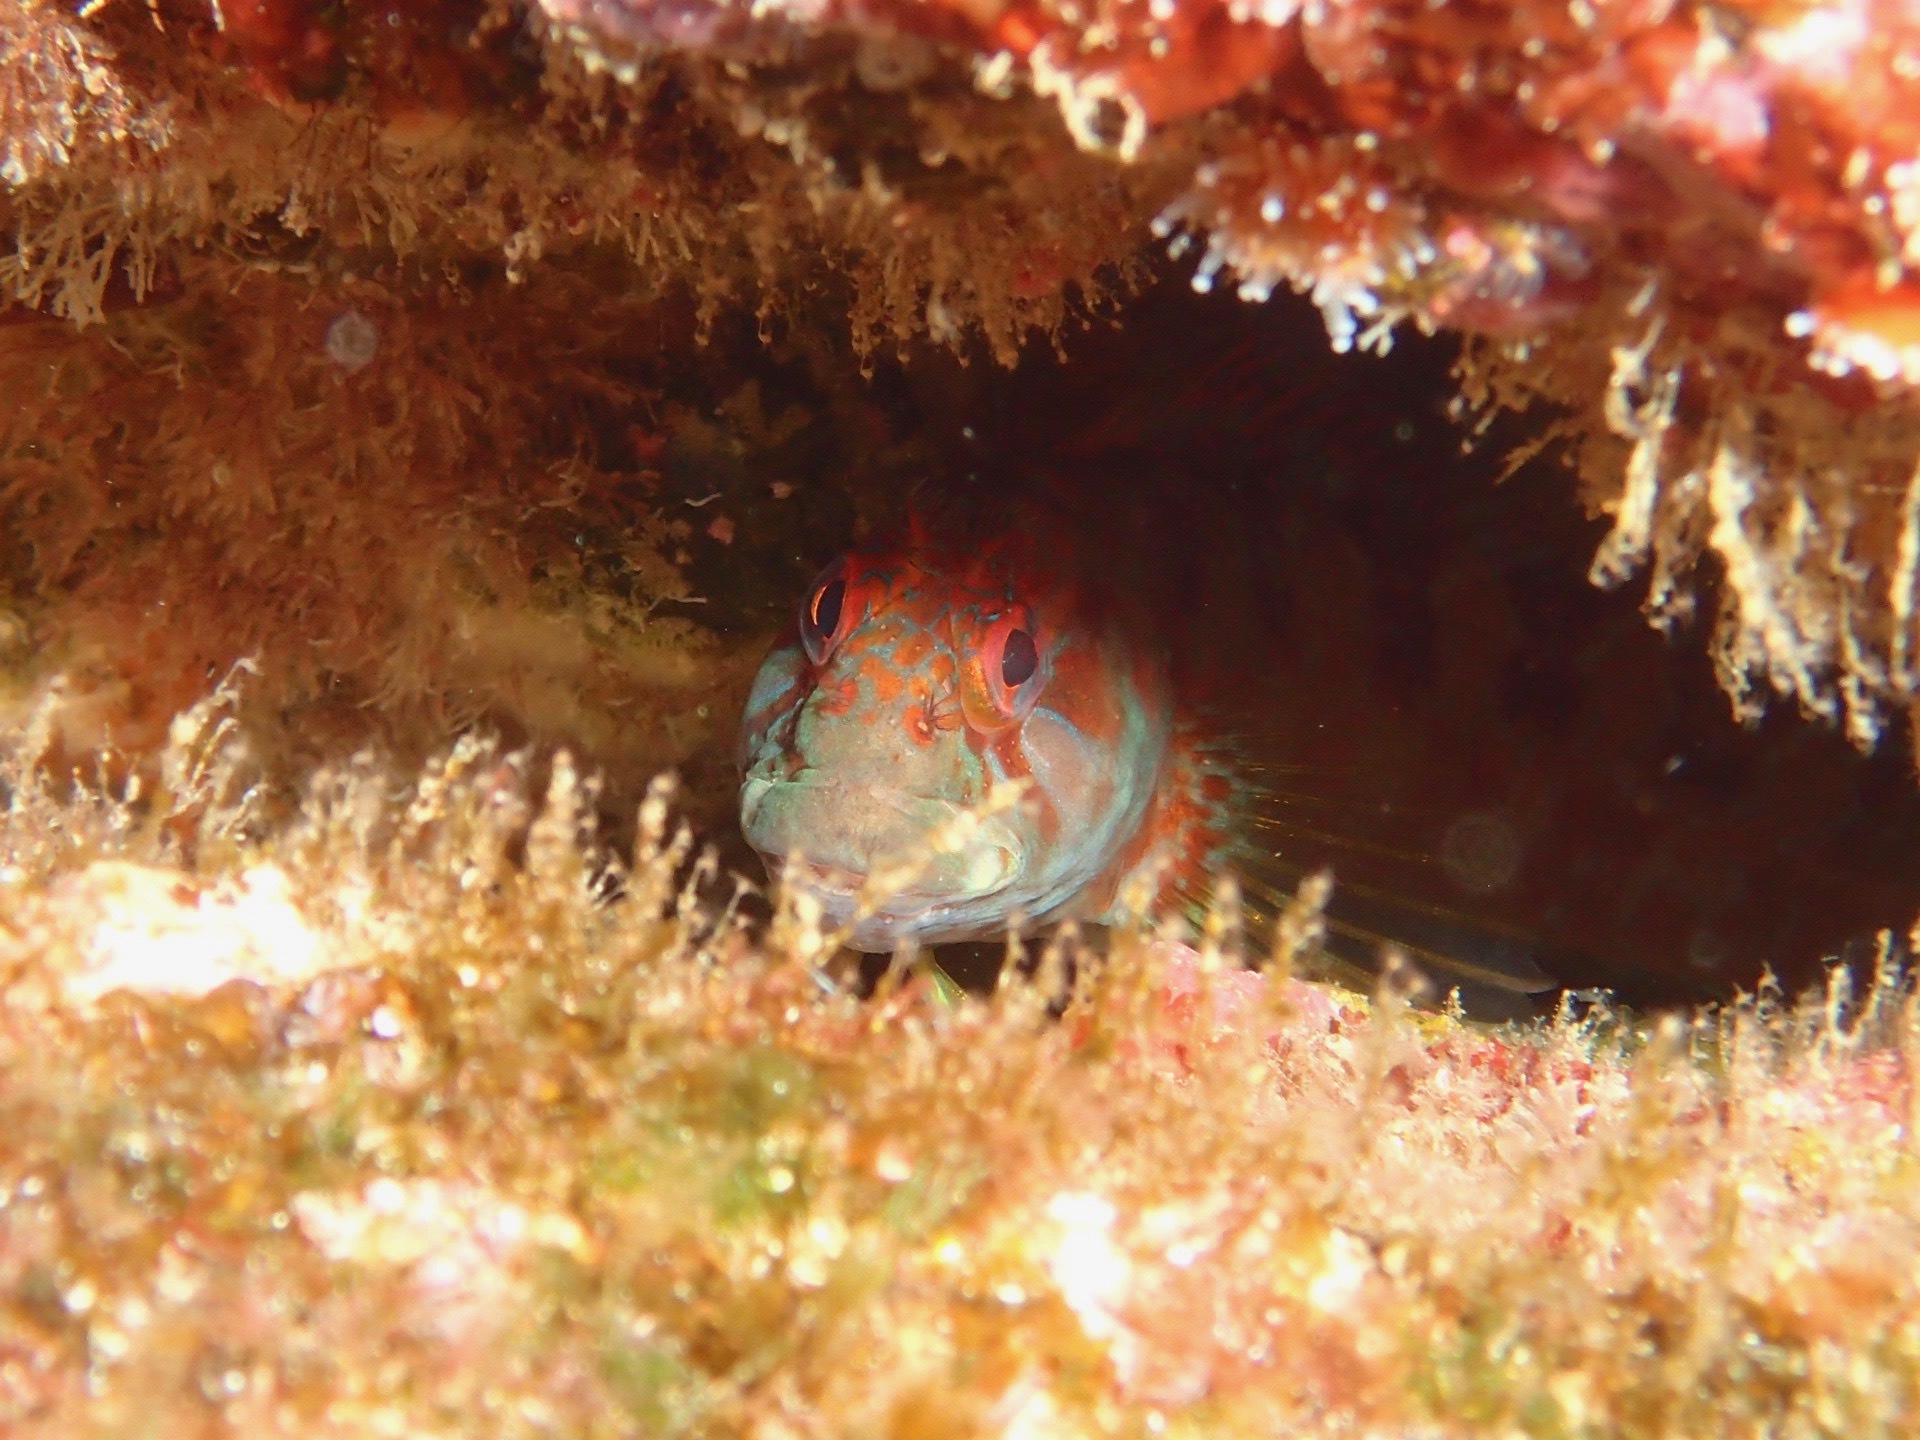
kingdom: Animalia
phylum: Chordata
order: Perciformes
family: Blenniidae
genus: Parablennius
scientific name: Parablennius ruber
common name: Portuguese blenny
